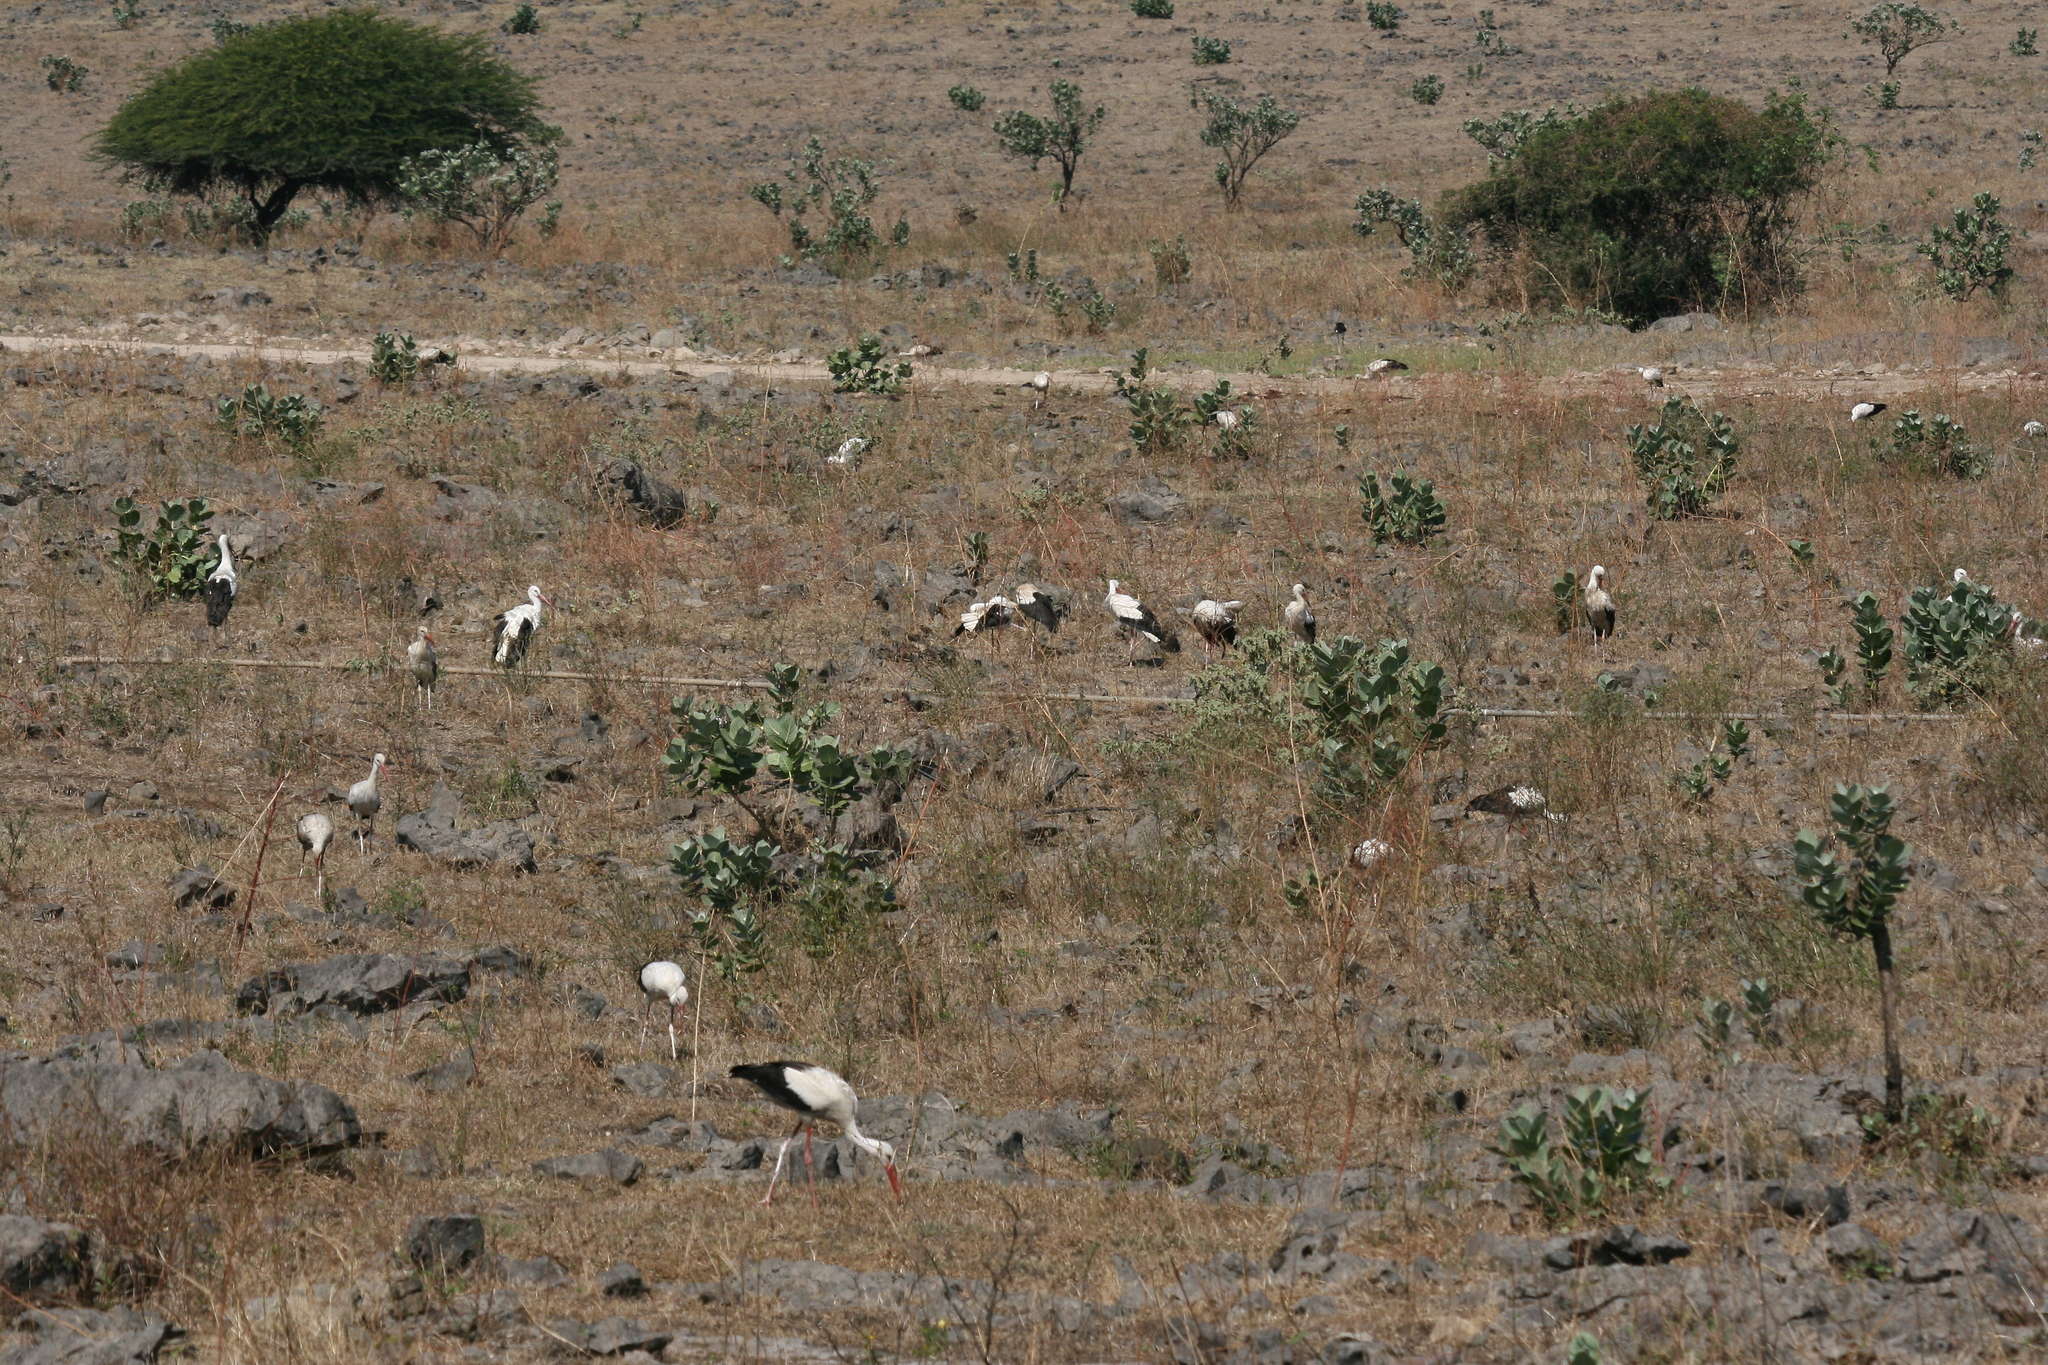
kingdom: Animalia
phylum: Chordata
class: Aves
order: Ciconiiformes
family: Ciconiidae
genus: Ciconia
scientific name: Ciconia ciconia
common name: White stork
